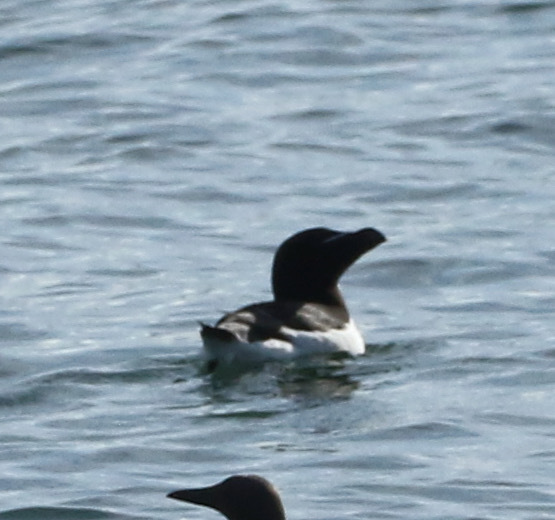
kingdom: Animalia
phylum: Chordata
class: Aves
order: Charadriiformes
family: Alcidae
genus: Alca
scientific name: Alca torda
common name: Razorbill
